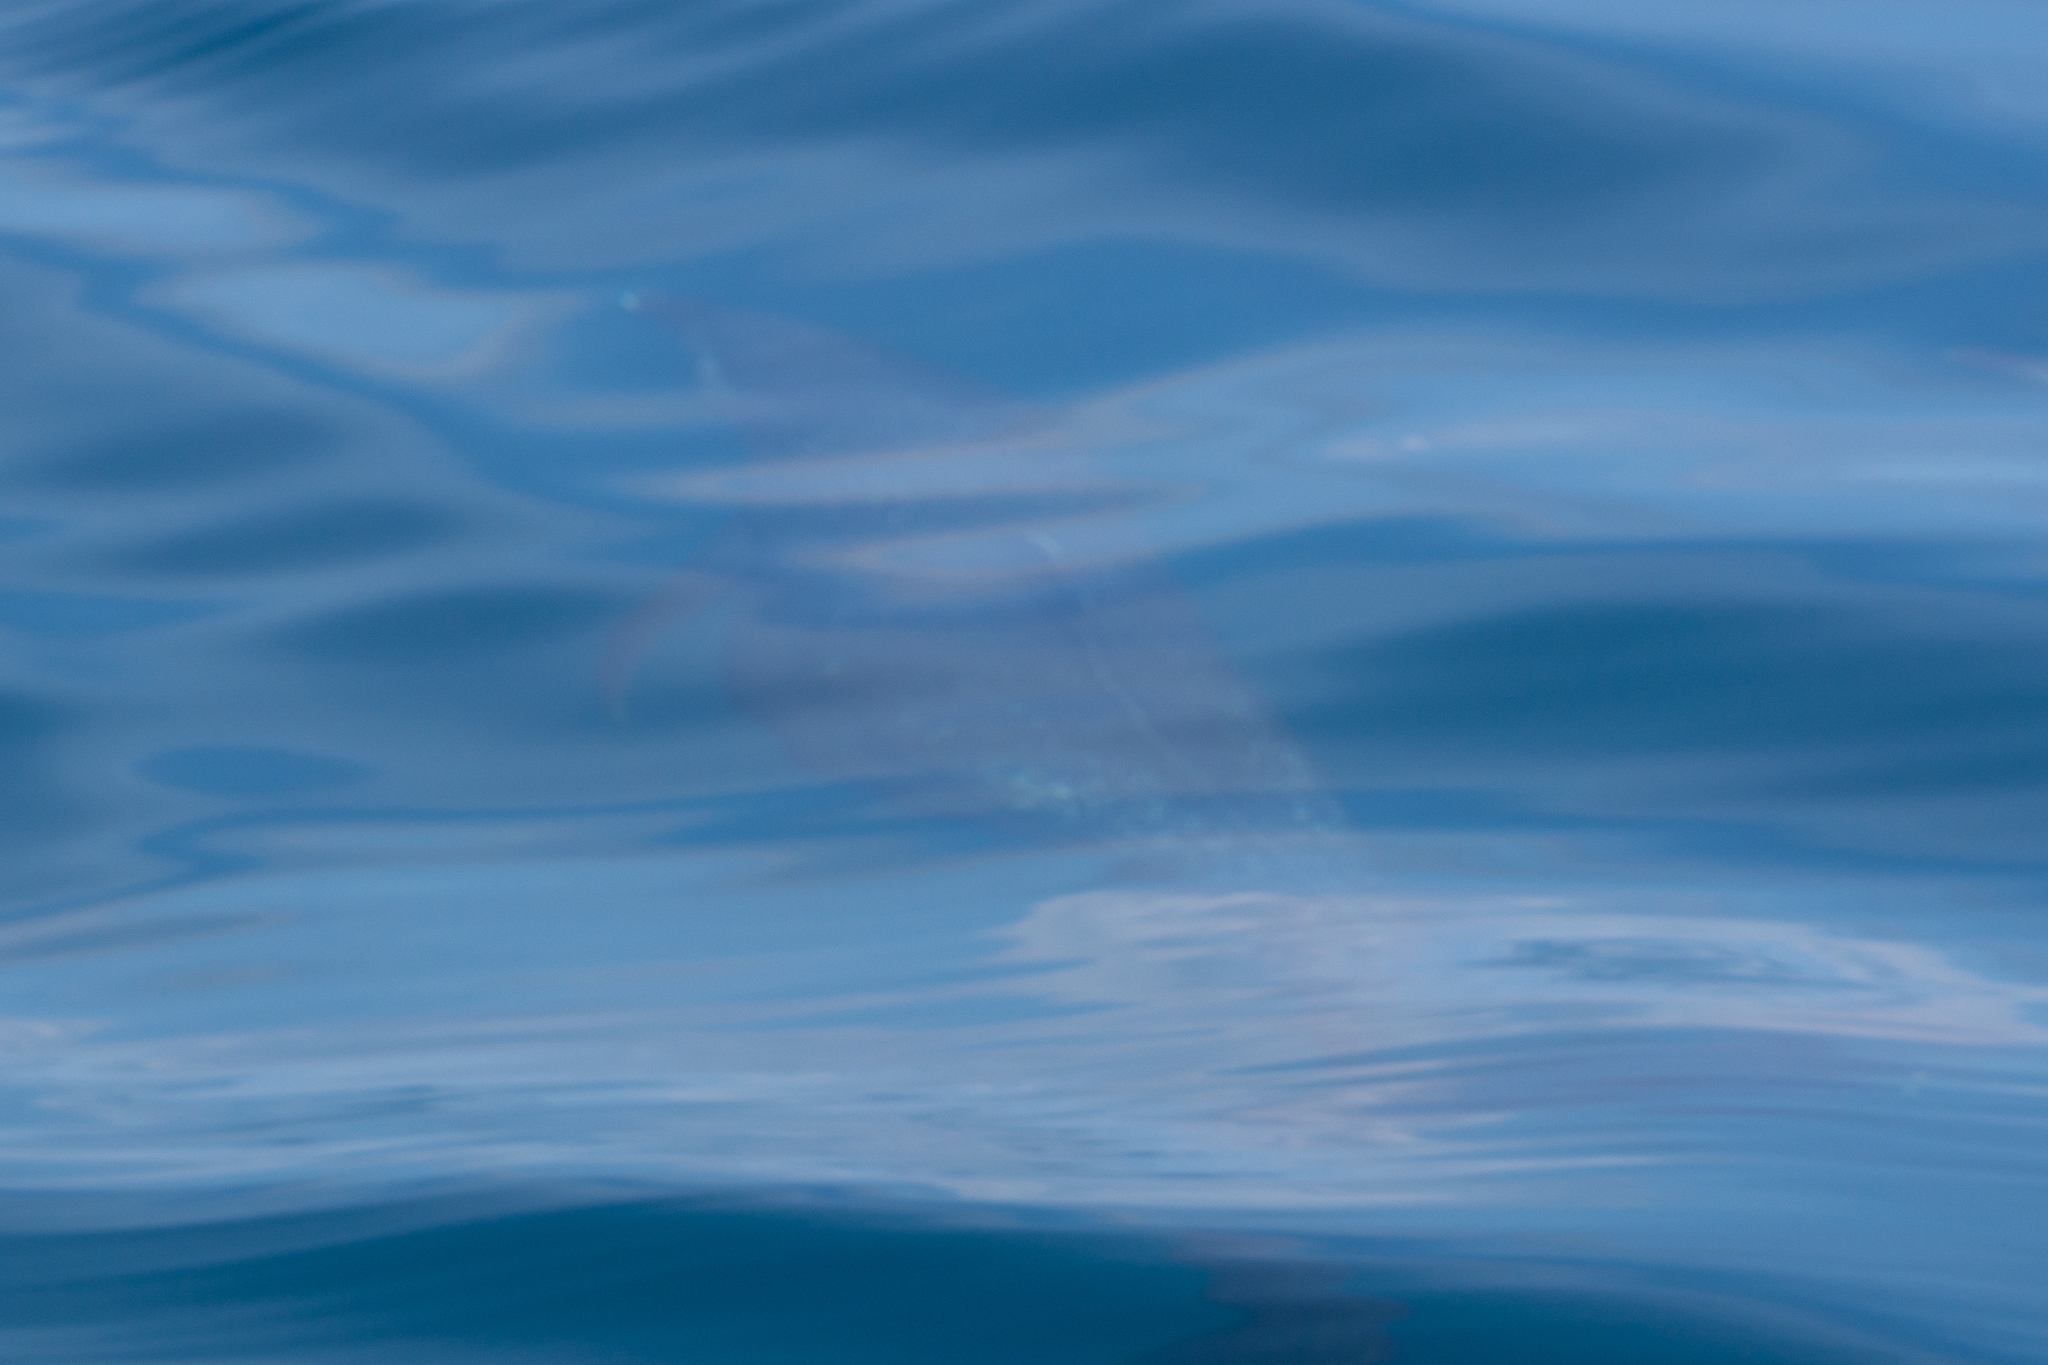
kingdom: Animalia
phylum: Chordata
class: Mammalia
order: Cetacea
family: Delphinidae
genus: Stenella
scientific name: Stenella attenuata
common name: Pantropical spotted dolphin
